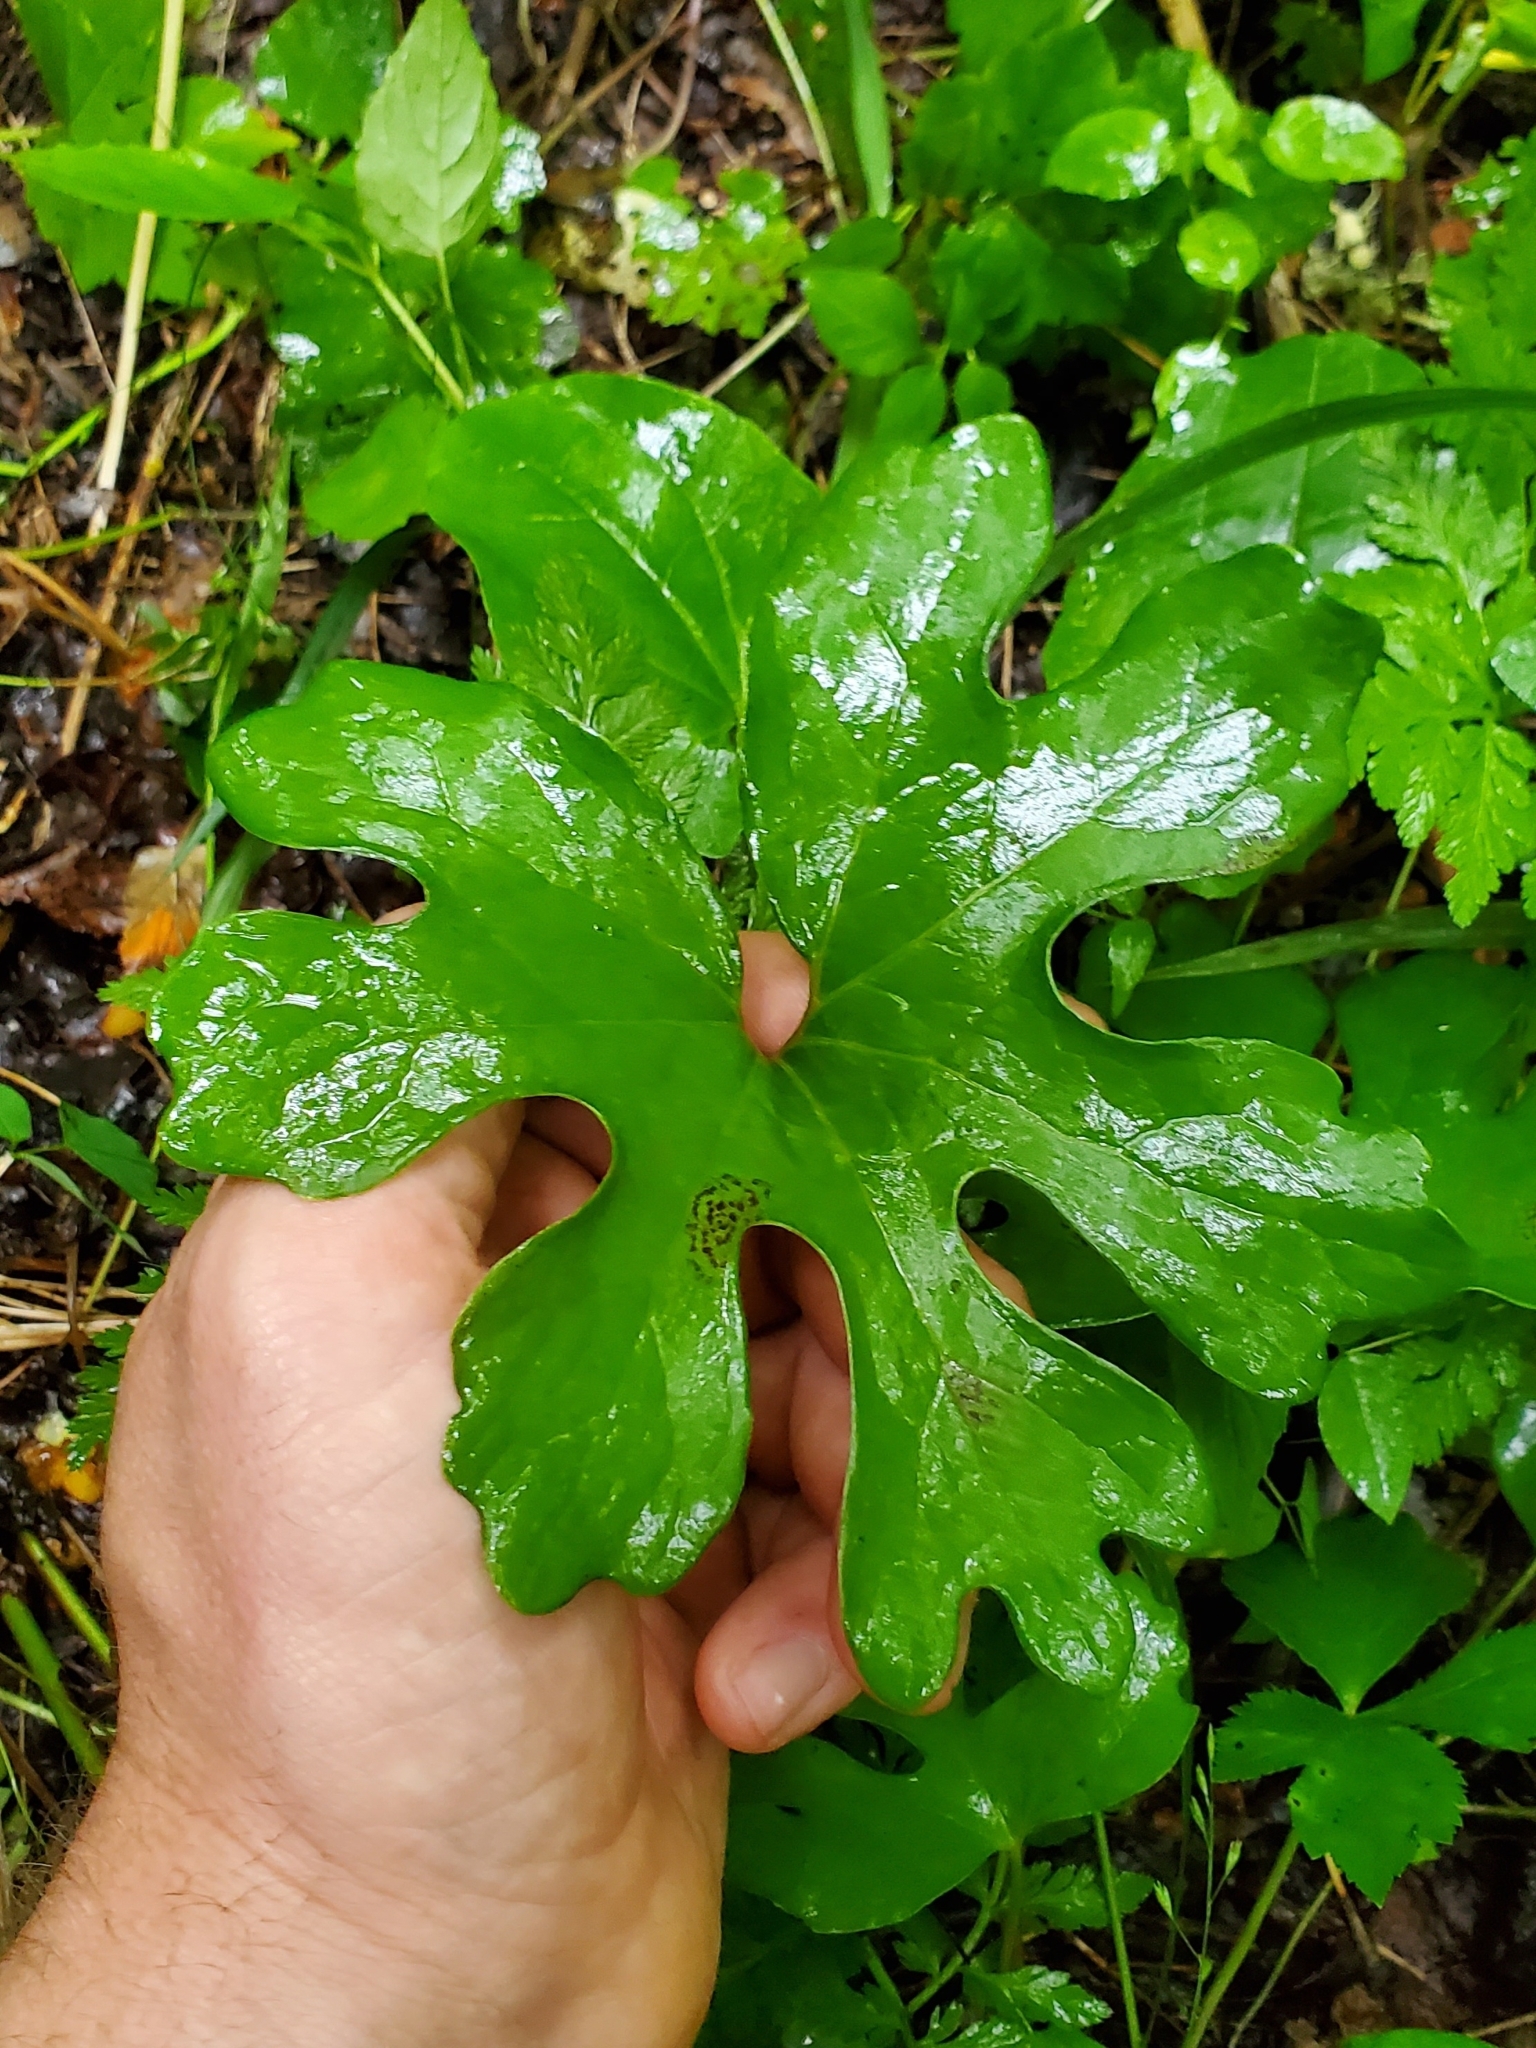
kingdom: Plantae
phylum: Tracheophyta
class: Magnoliopsida
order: Ranunculales
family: Papaveraceae
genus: Sanguinaria
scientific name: Sanguinaria canadensis
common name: Bloodroot
